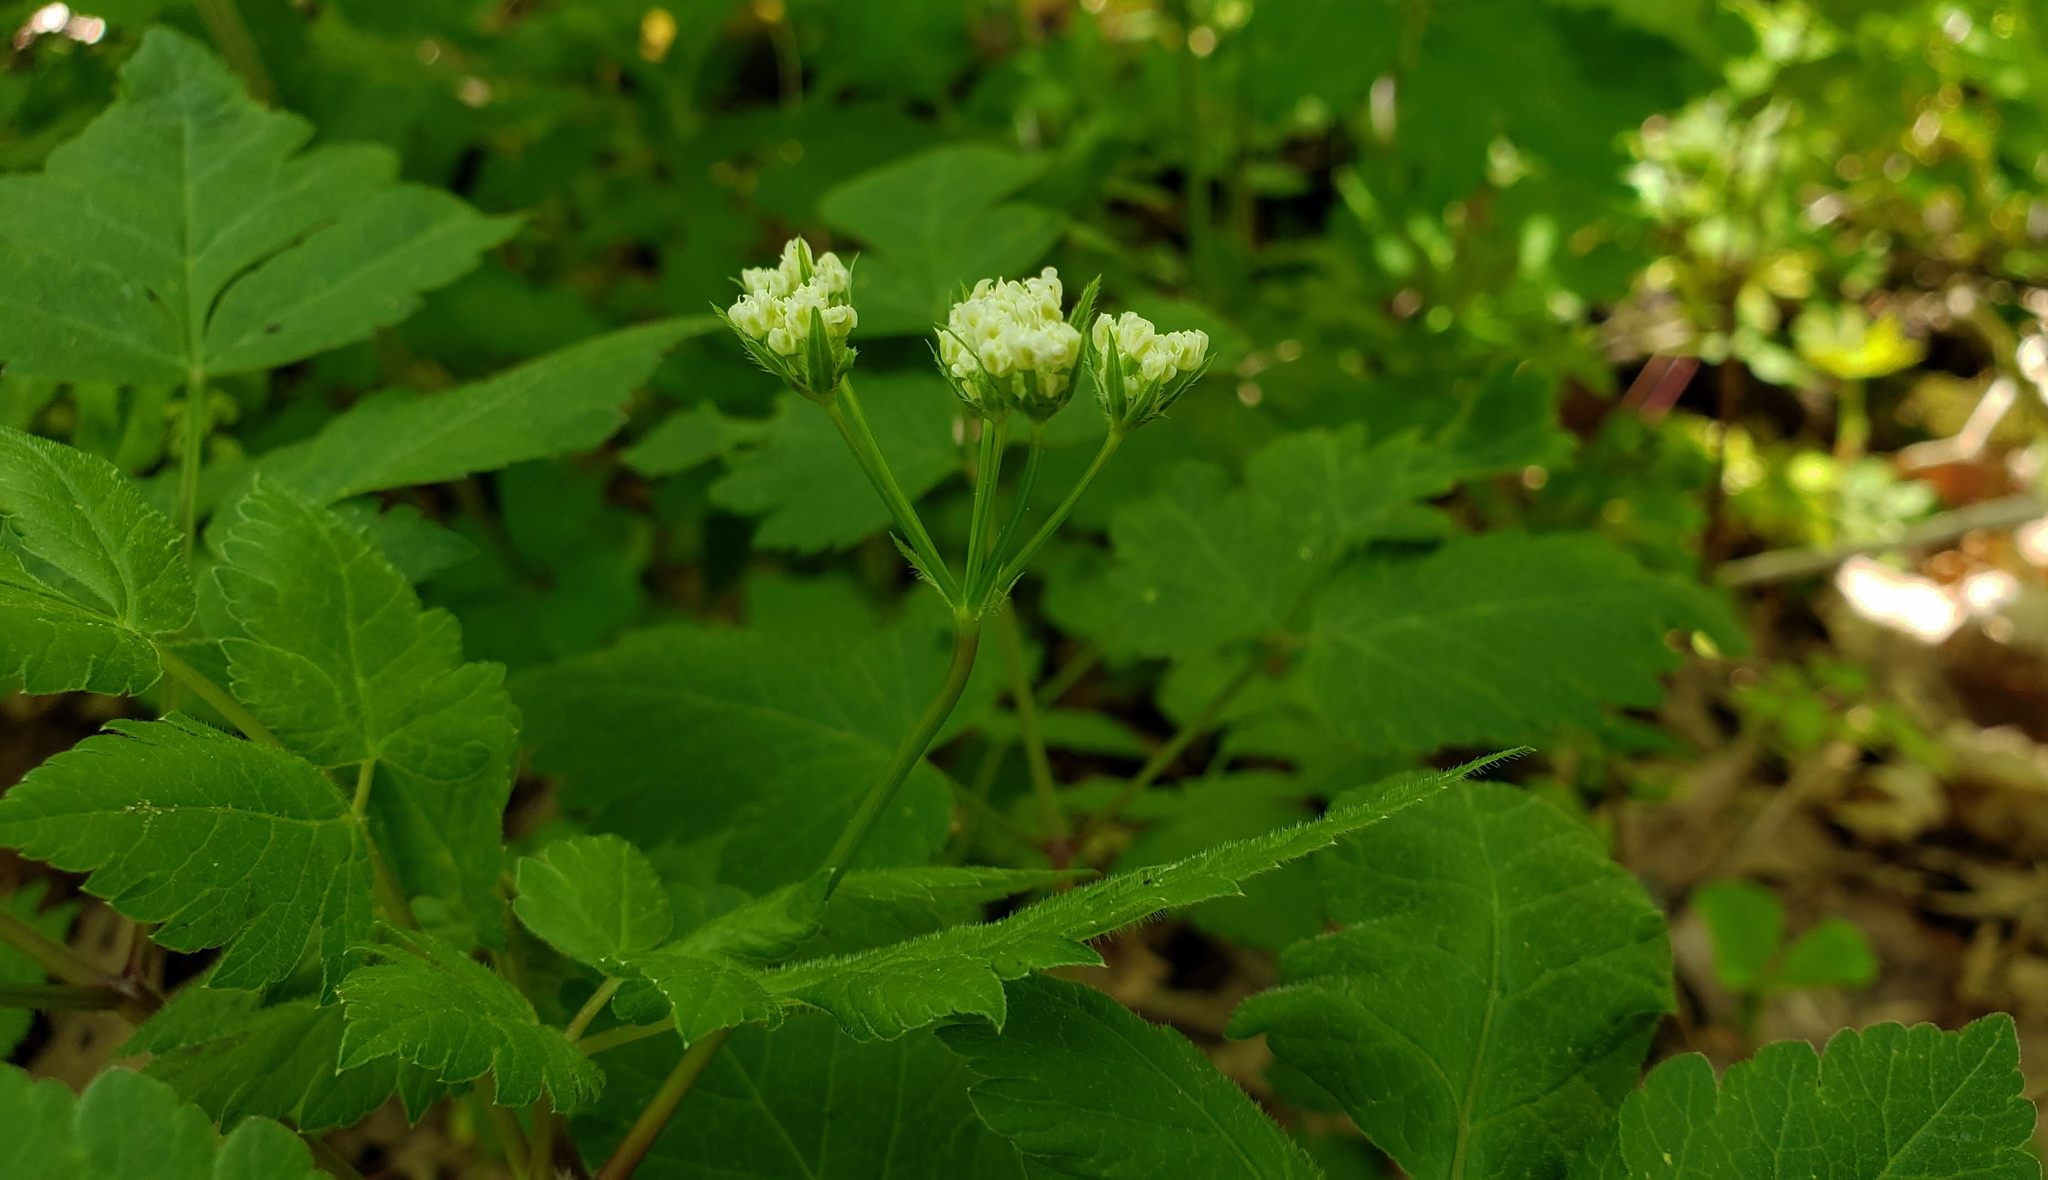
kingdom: Plantae
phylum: Tracheophyta
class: Magnoliopsida
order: Apiales
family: Apiaceae
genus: Osmorhiza
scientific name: Osmorhiza longistylis
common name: Smooth sweet cicely
